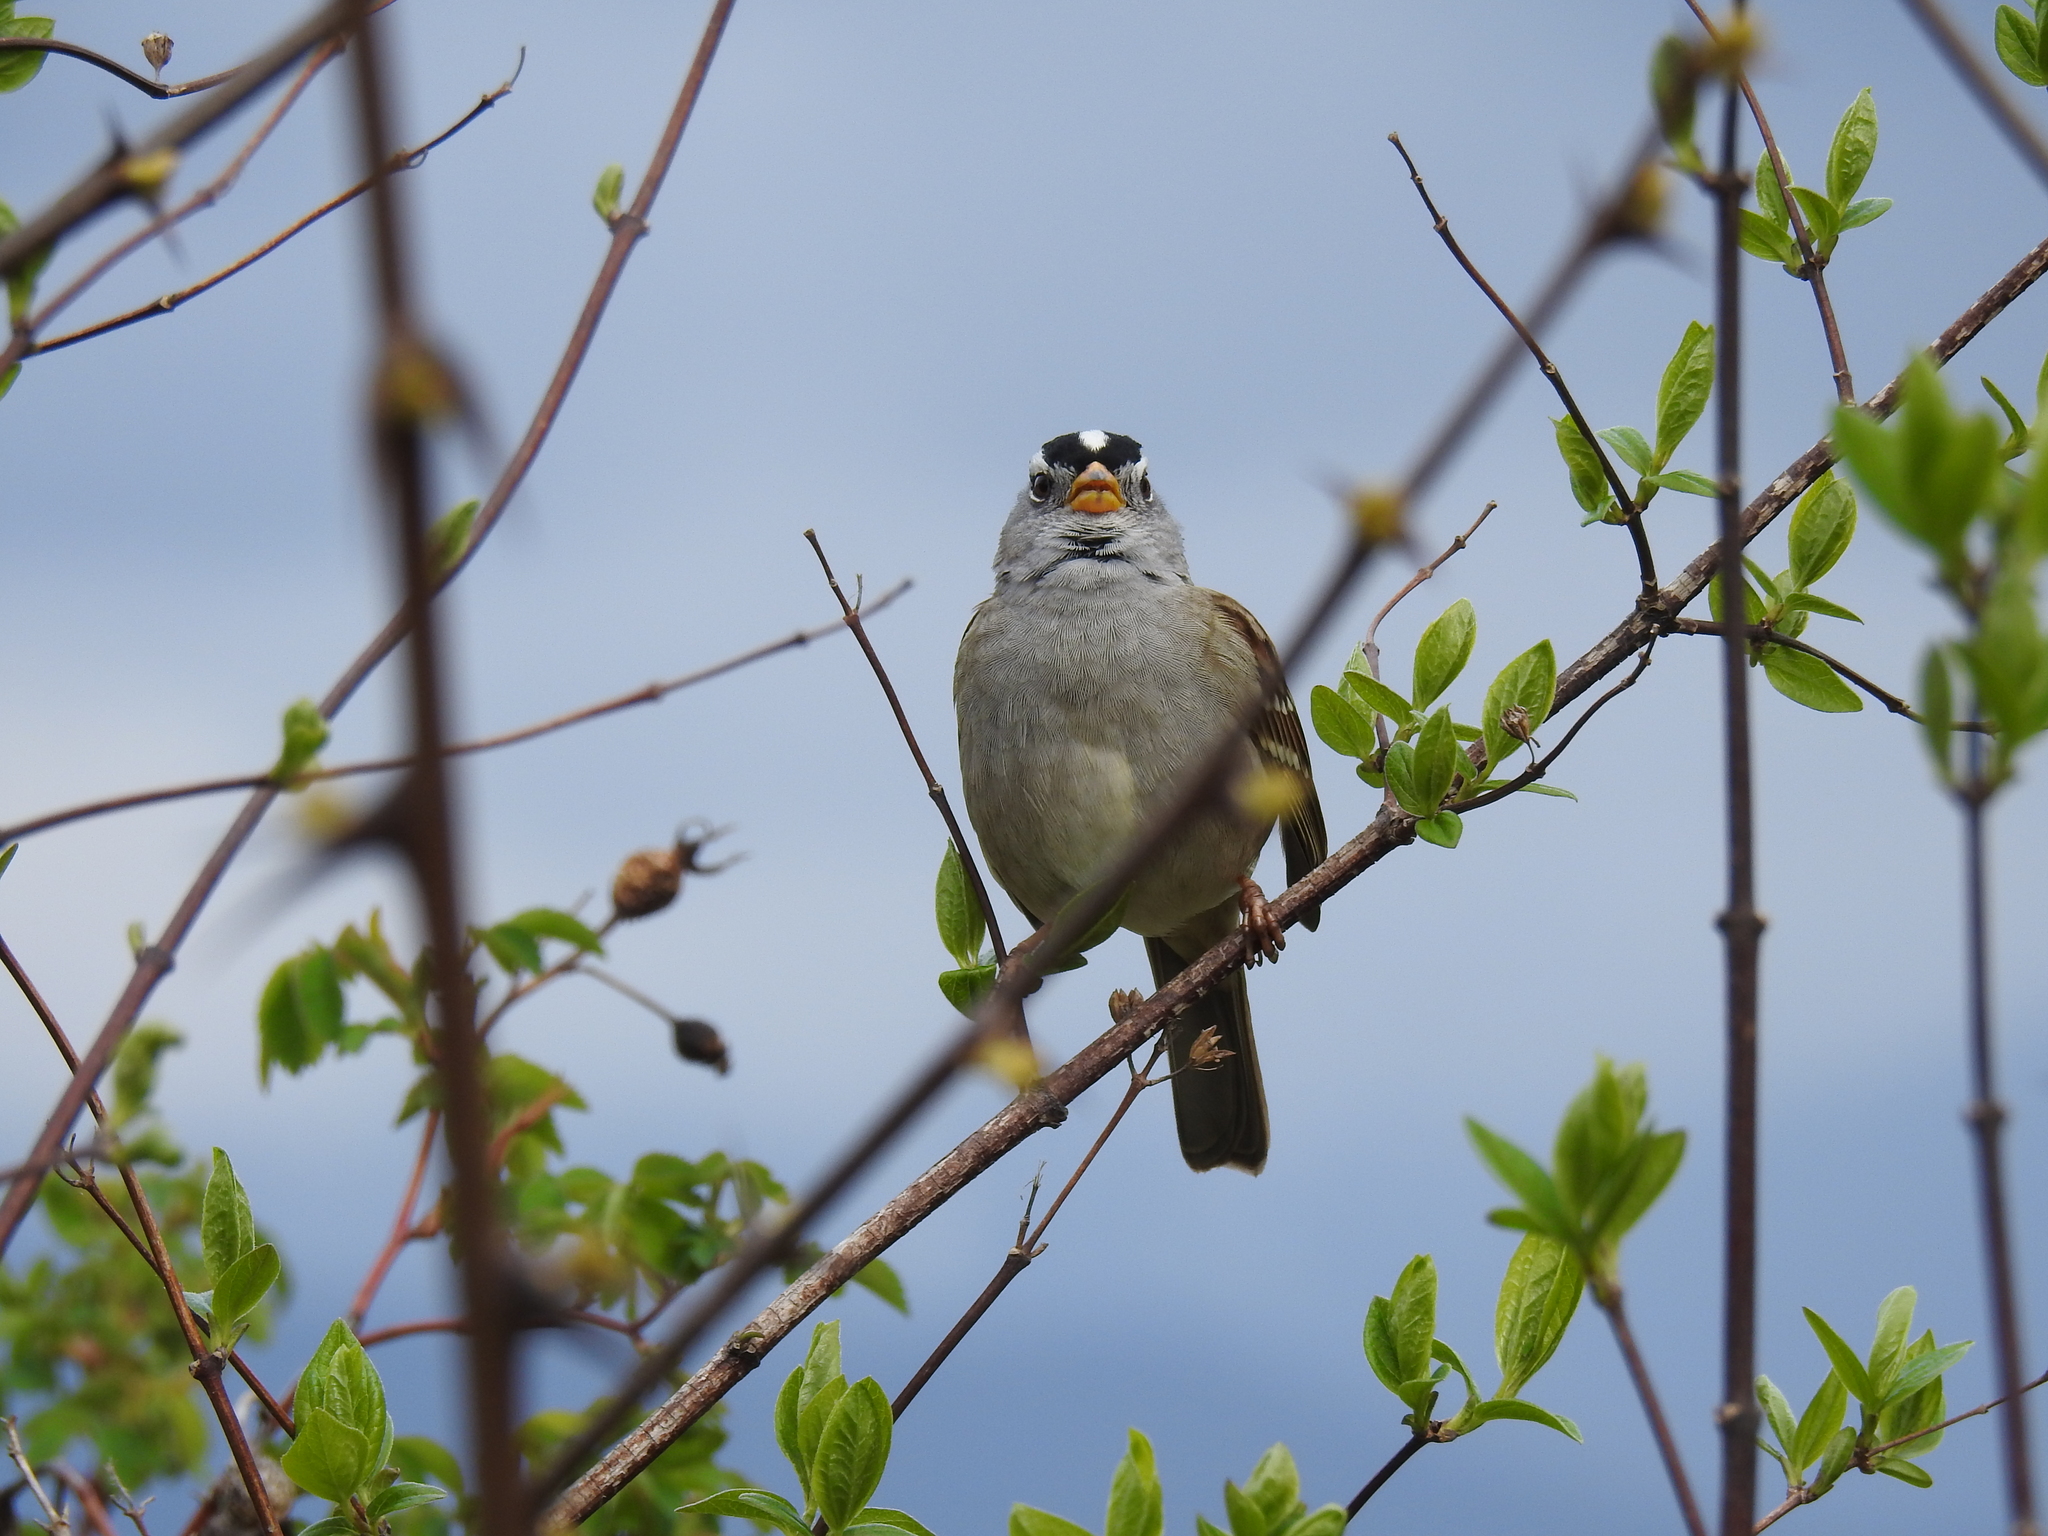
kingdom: Animalia
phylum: Chordata
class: Aves
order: Passeriformes
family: Passerellidae
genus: Zonotrichia
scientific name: Zonotrichia leucophrys
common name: White-crowned sparrow
